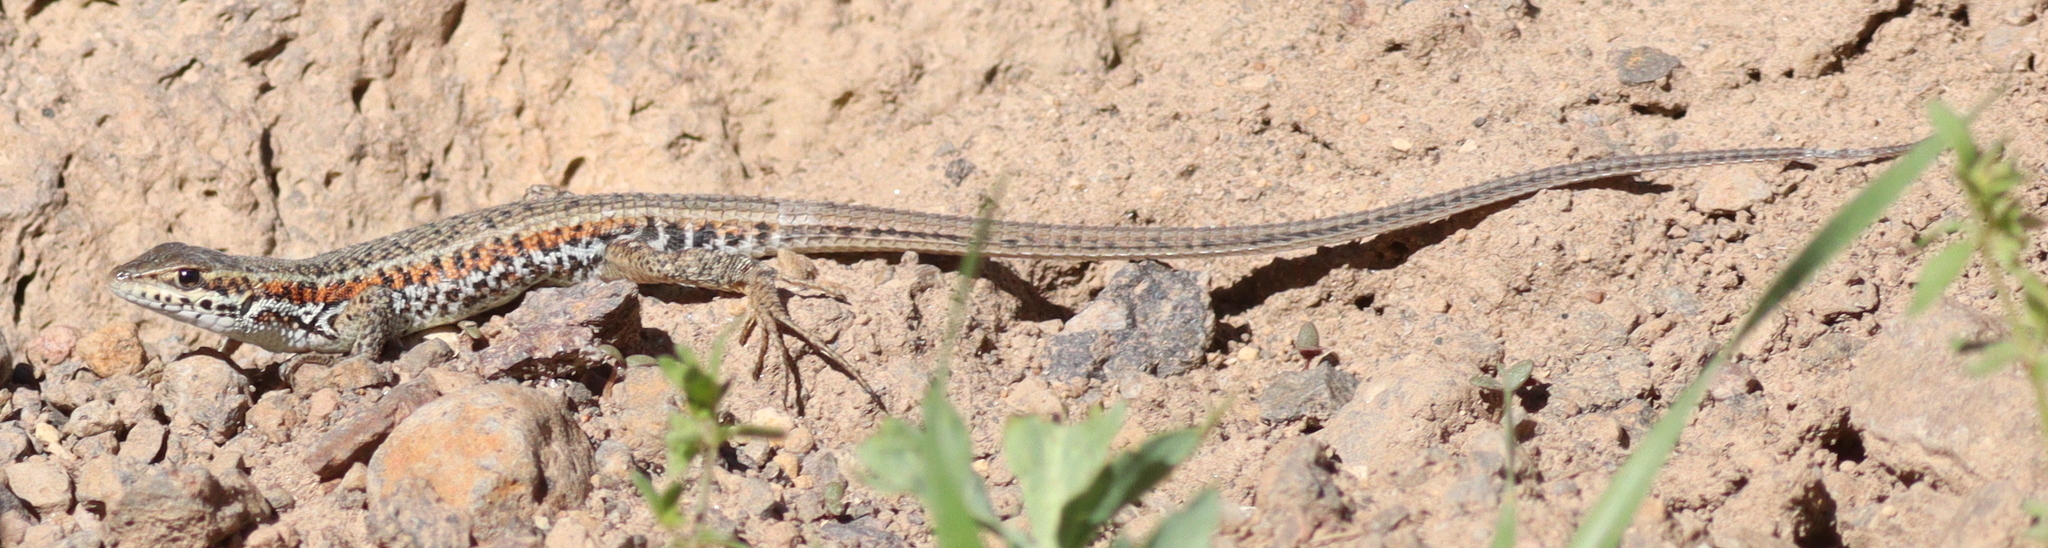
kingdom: Animalia
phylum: Chordata
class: Squamata
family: Lacertidae
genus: Ophisops
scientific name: Ophisops elegans
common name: Snake-eyed lizard
